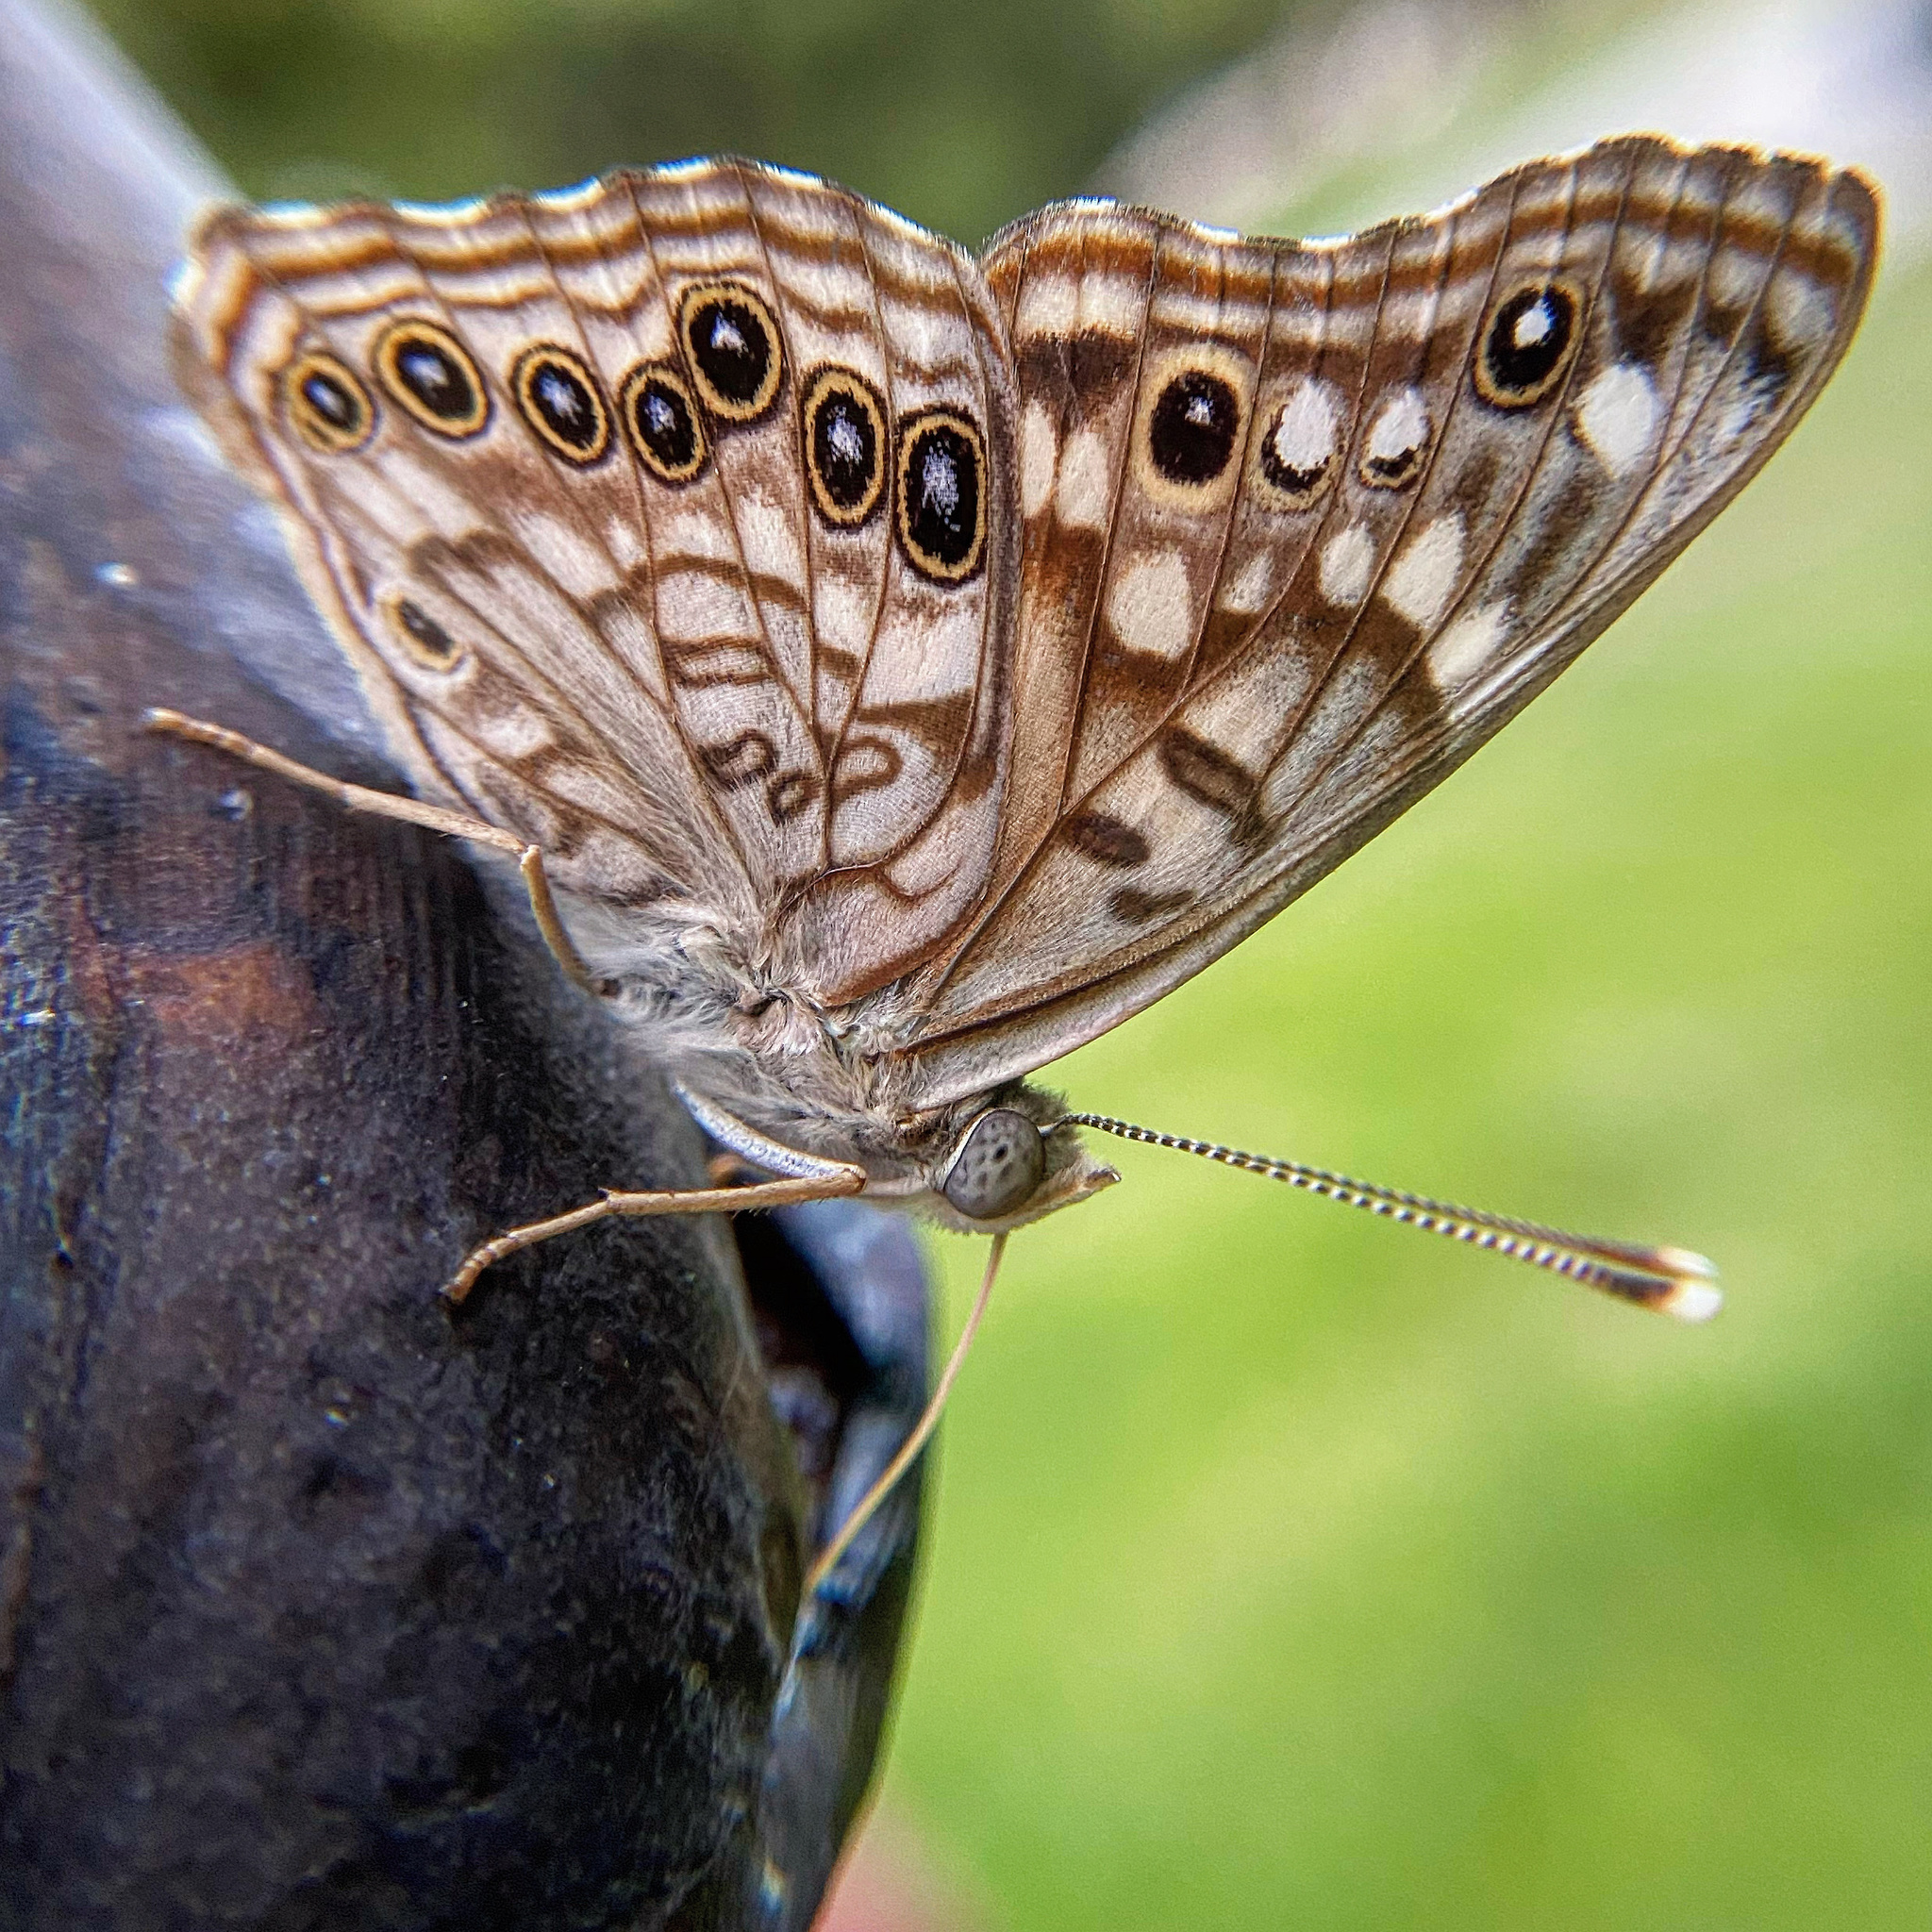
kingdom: Animalia
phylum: Arthropoda
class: Insecta
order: Lepidoptera
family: Nymphalidae
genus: Asterocampa
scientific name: Asterocampa celtis
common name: Hackberry emperor
